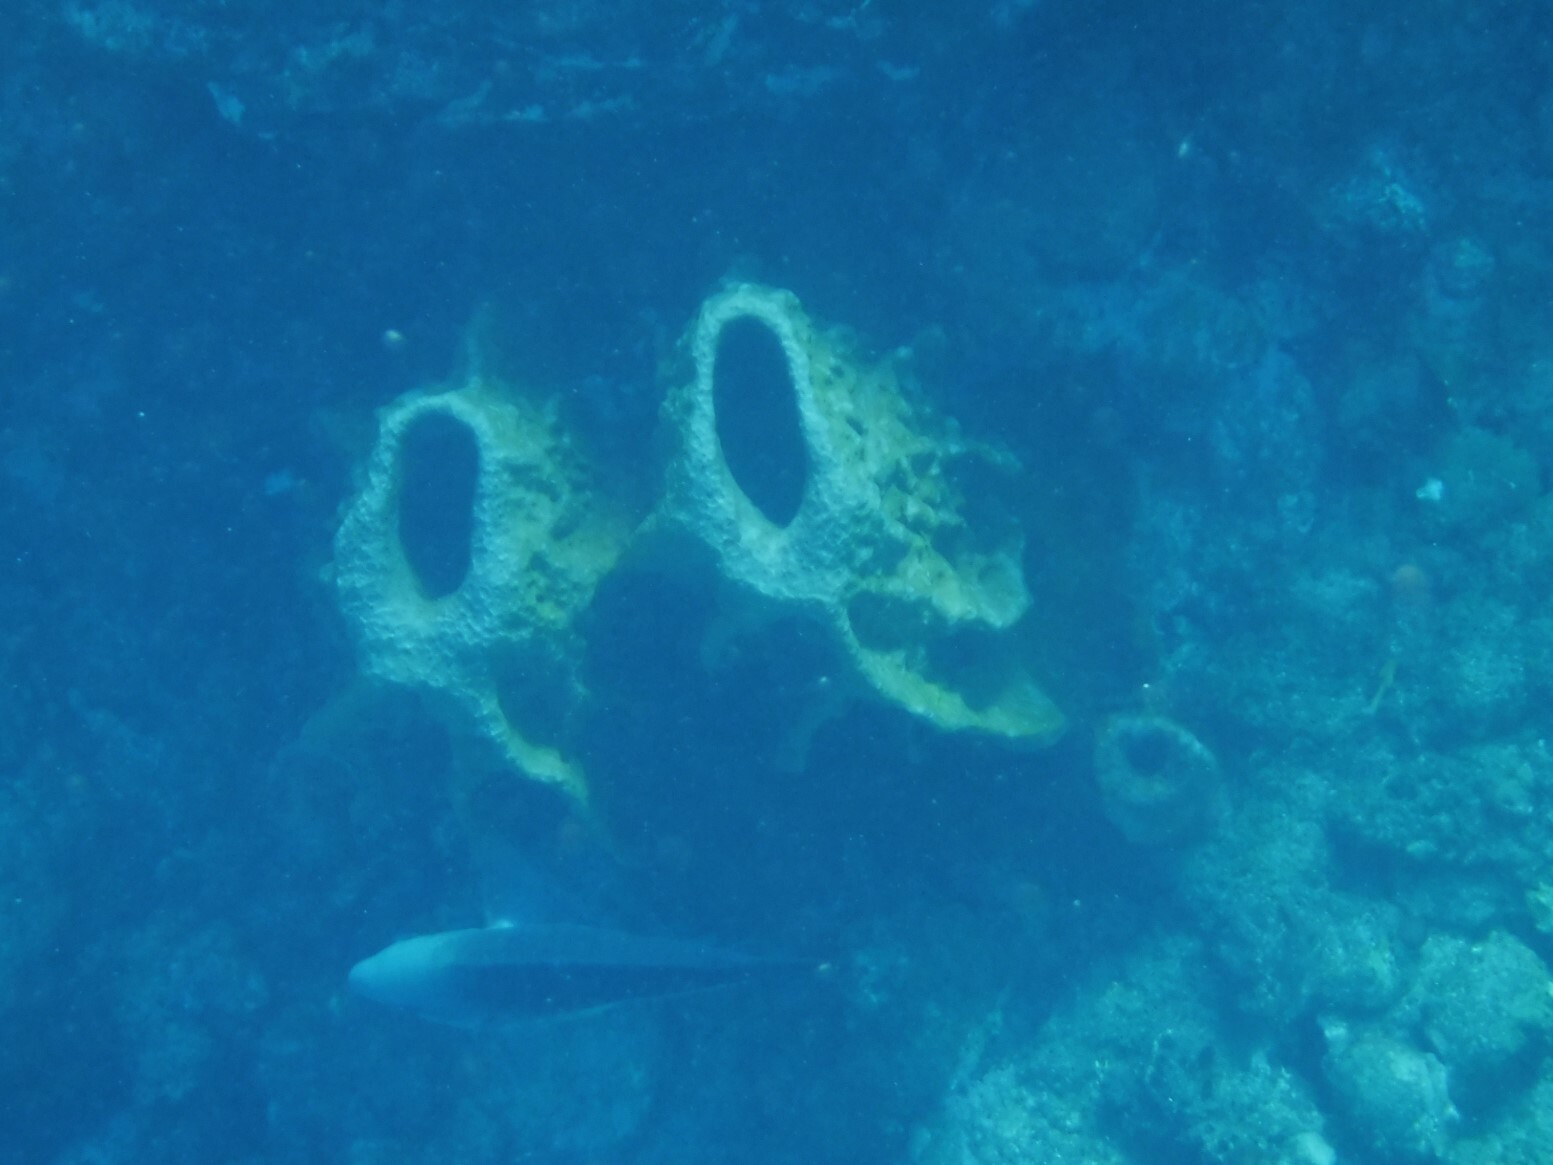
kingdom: Animalia
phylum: Porifera
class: Demospongiae
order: Haplosclerida
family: Petrosiidae
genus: Xestospongia
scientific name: Xestospongia muta
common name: Giant barrel sponge
